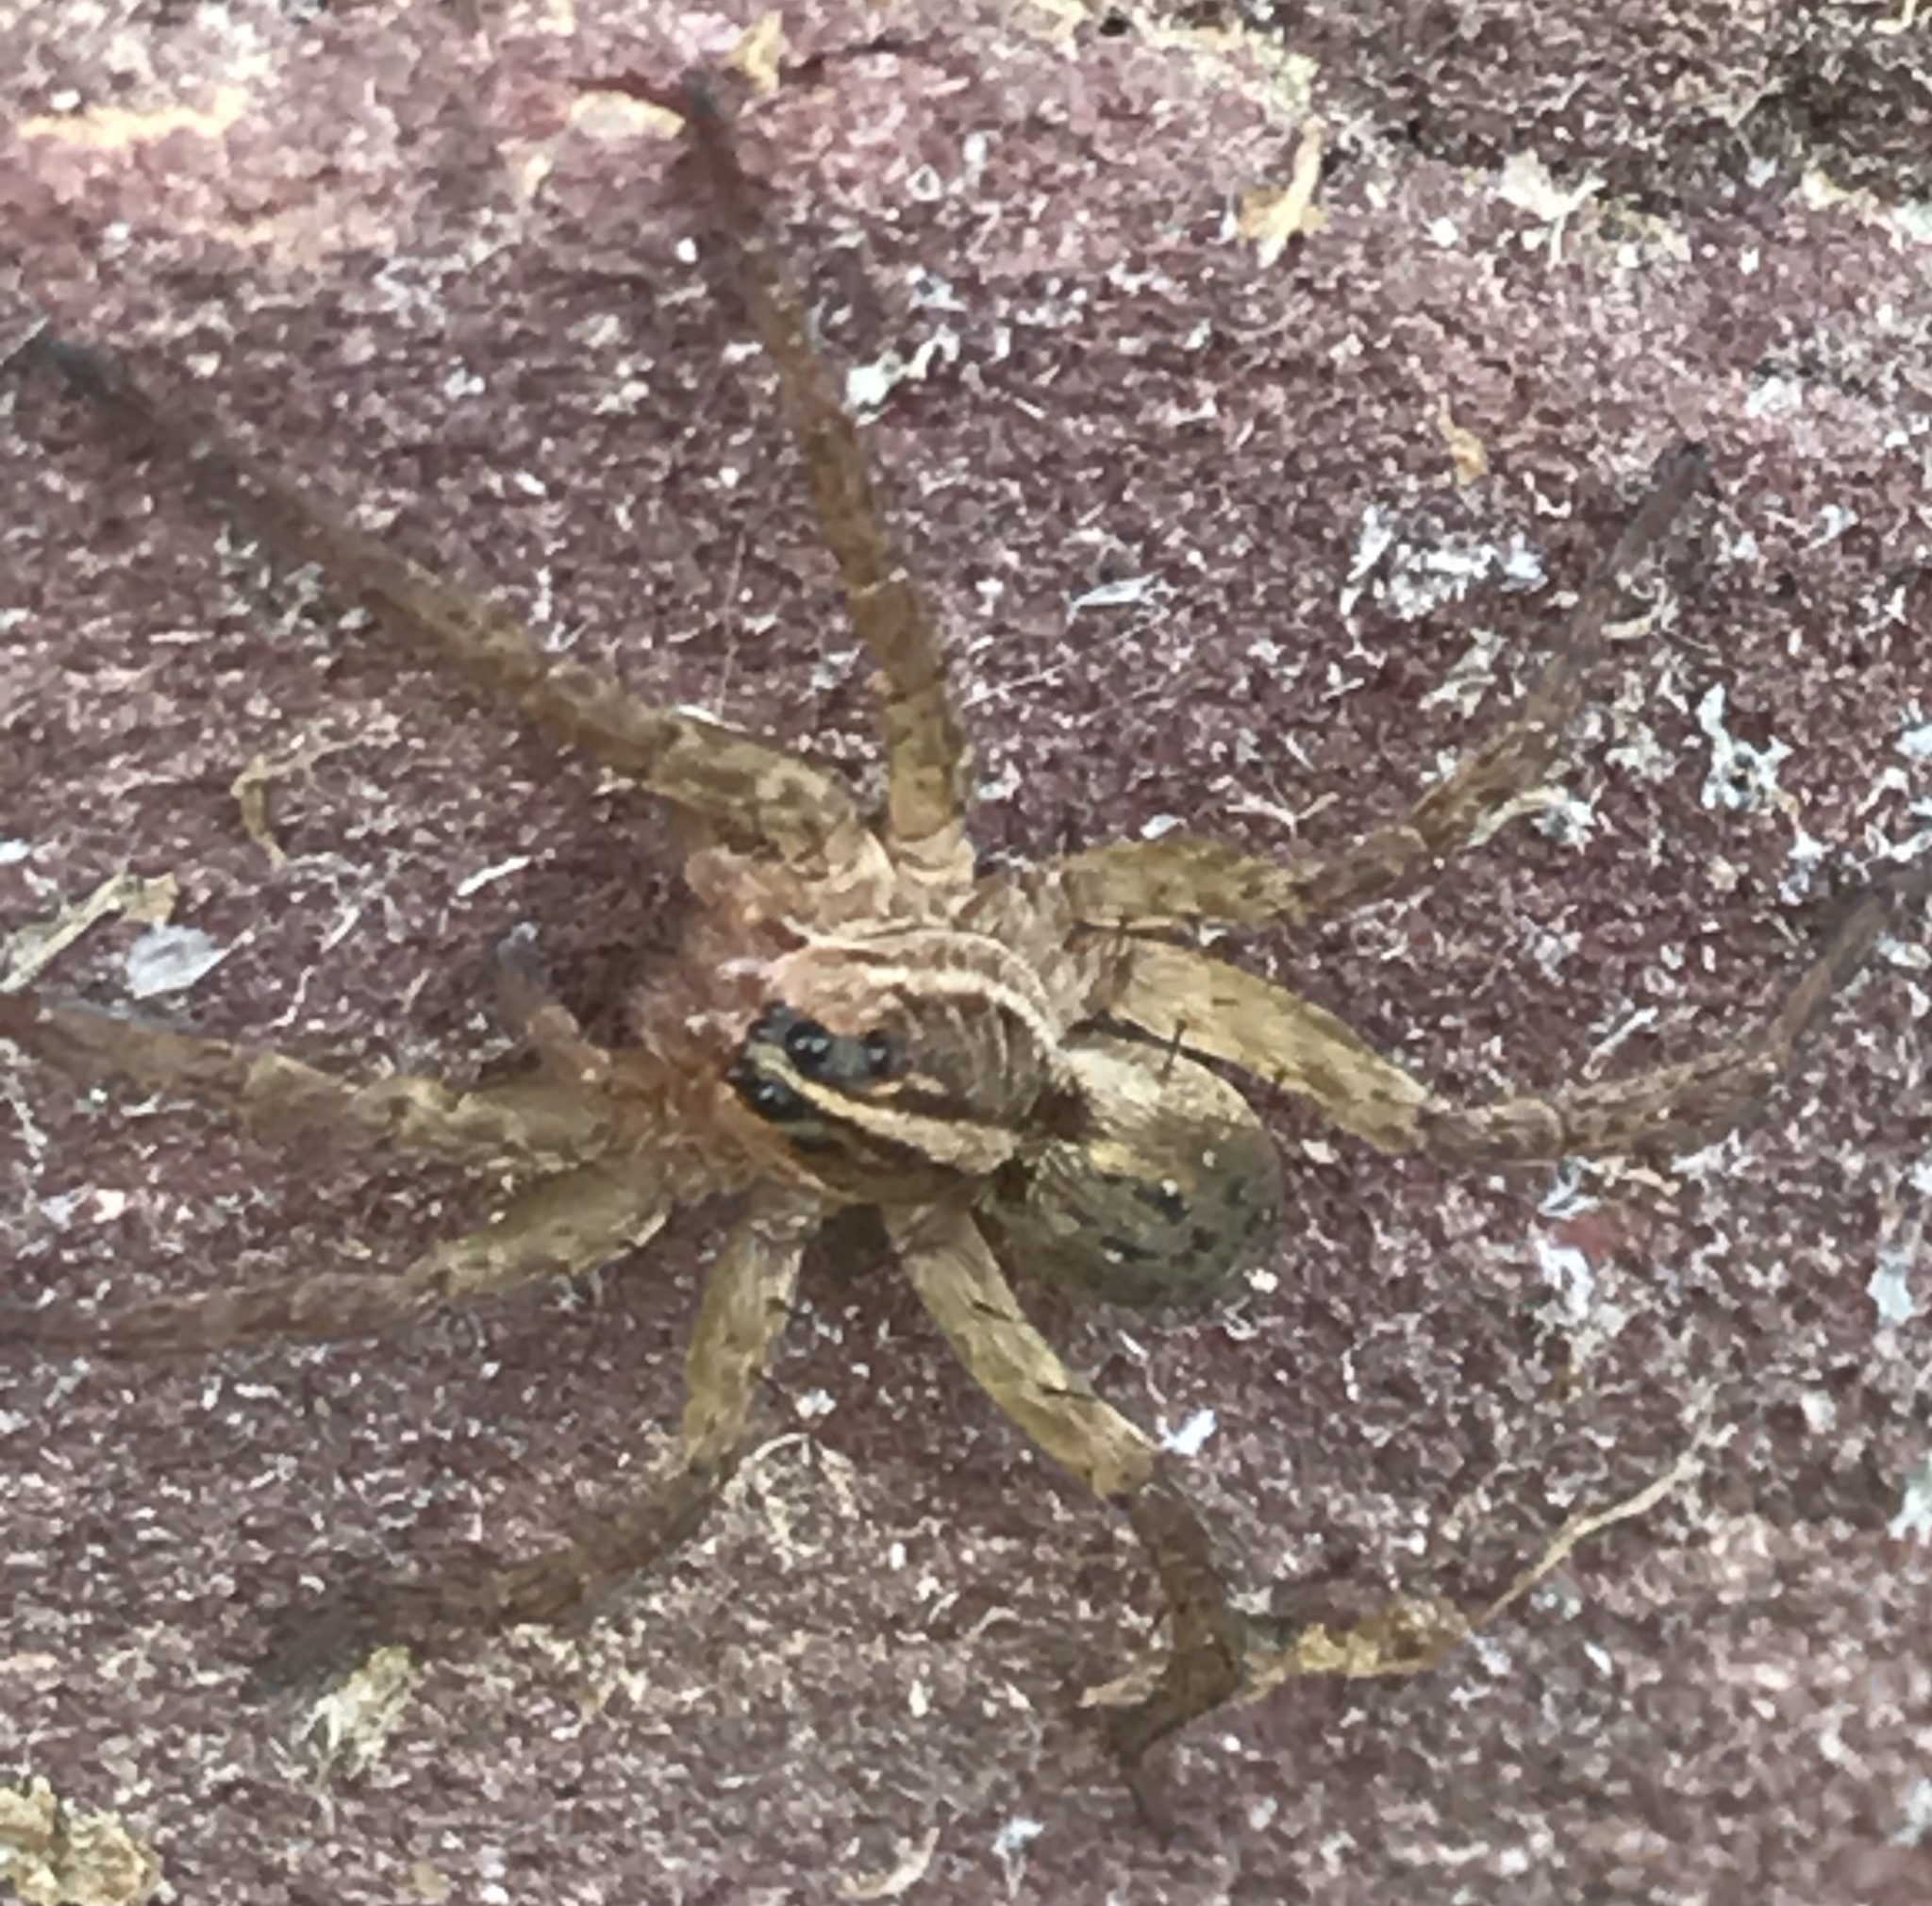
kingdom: Animalia
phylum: Arthropoda
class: Arachnida
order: Araneae
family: Lycosidae
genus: Tigrosa
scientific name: Tigrosa helluo
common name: Wetland giant wolf spider
